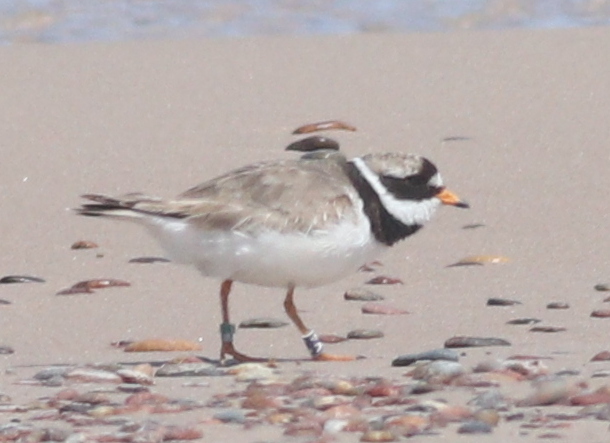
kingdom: Animalia
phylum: Chordata
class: Aves
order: Charadriiformes
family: Charadriidae
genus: Charadrius
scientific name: Charadrius hiaticula
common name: Common ringed plover
